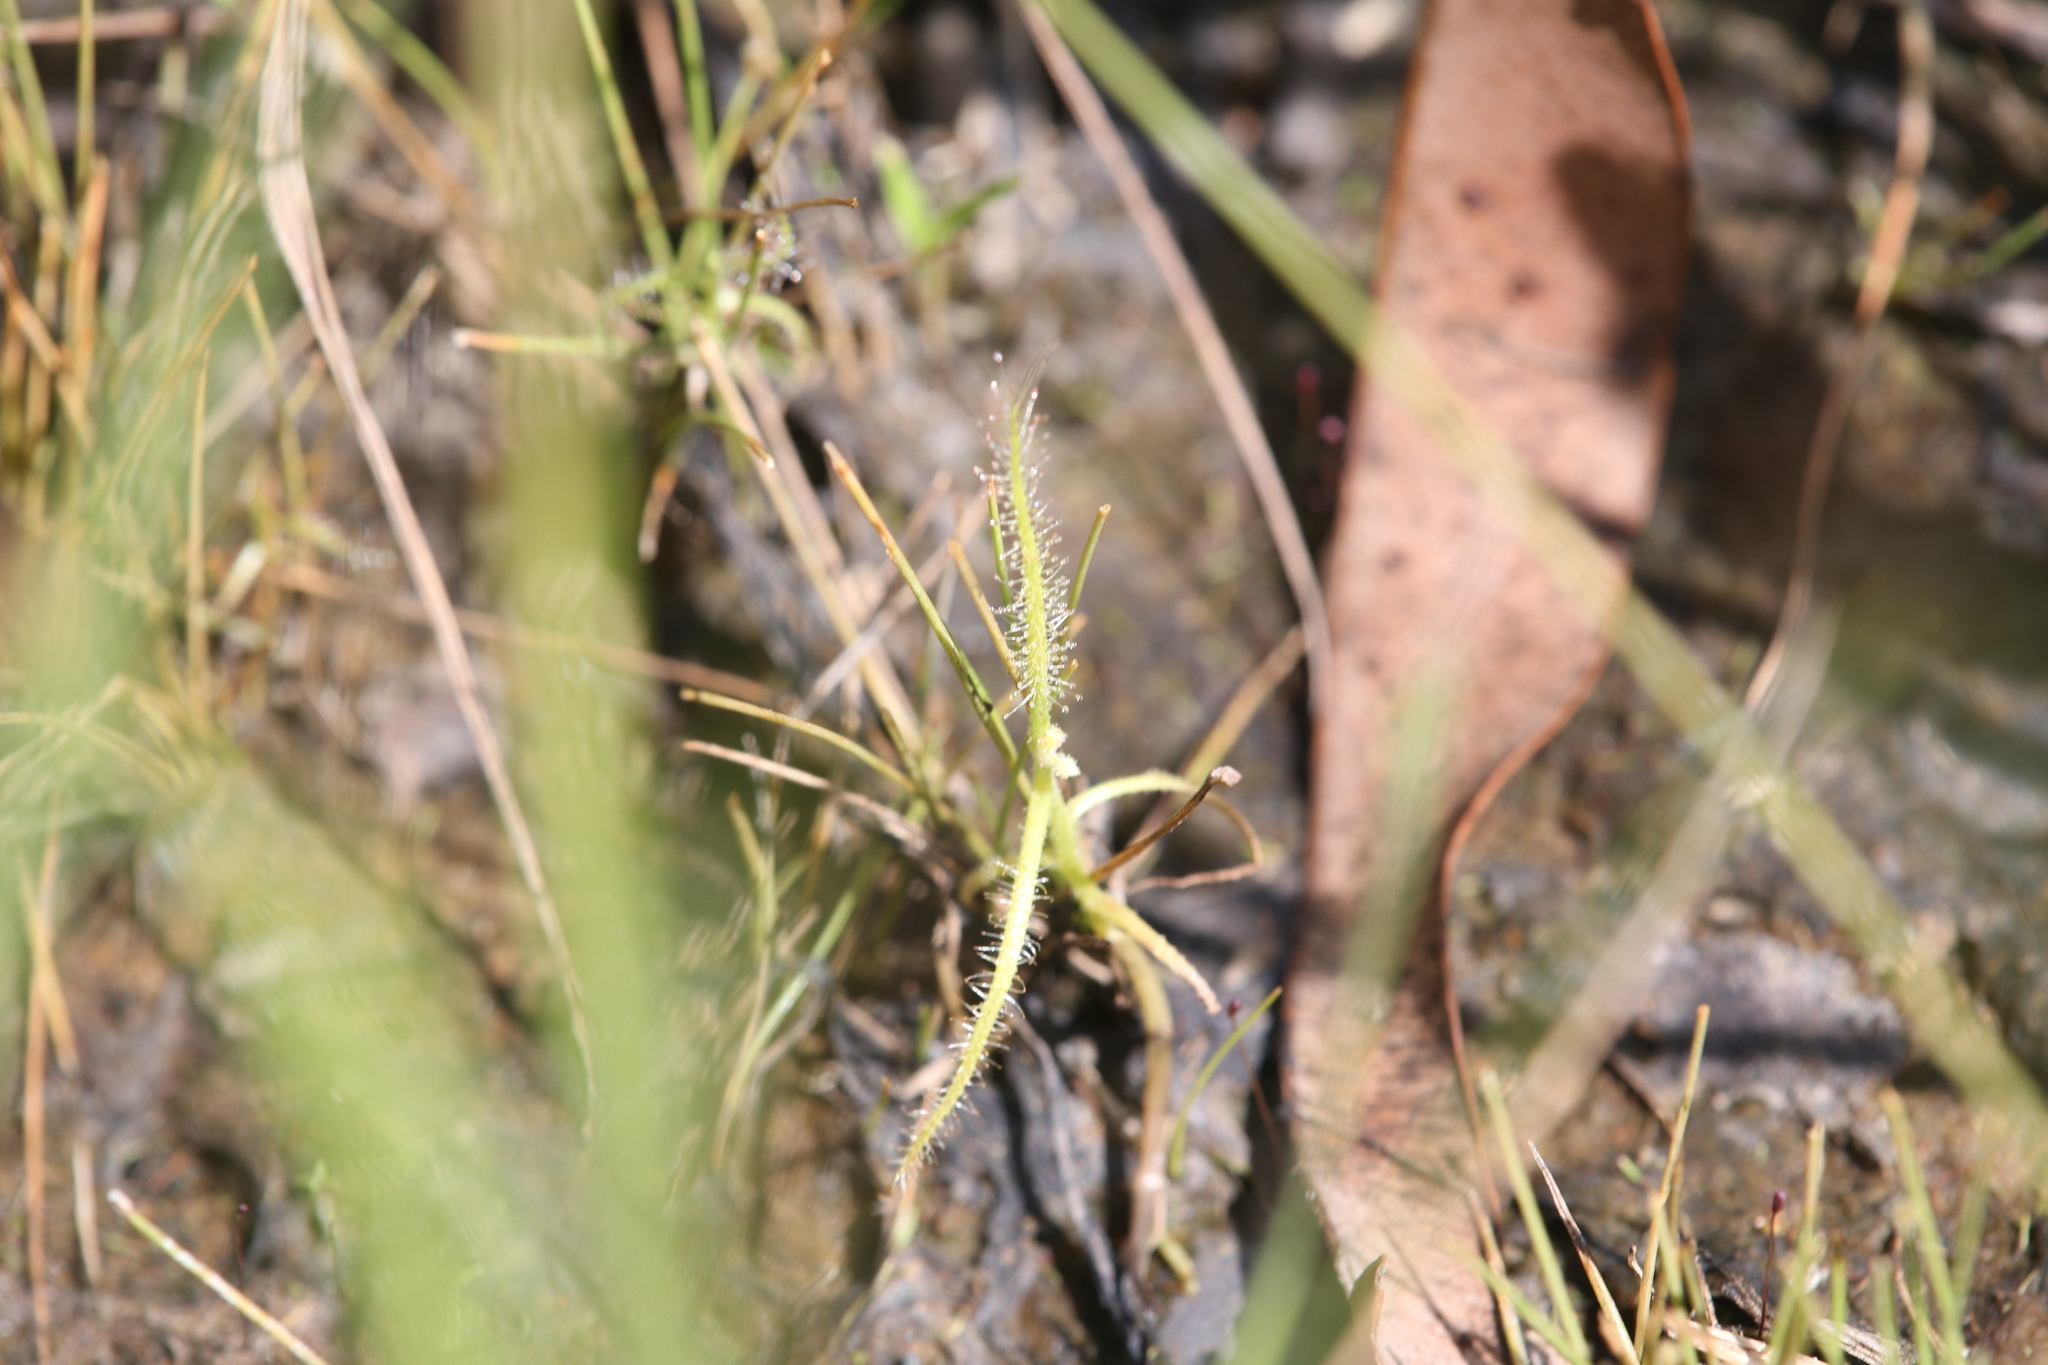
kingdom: Plantae
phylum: Tracheophyta
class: Magnoliopsida
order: Caryophyllales
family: Droseraceae
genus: Drosera
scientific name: Drosera indica
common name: Indian sundew
